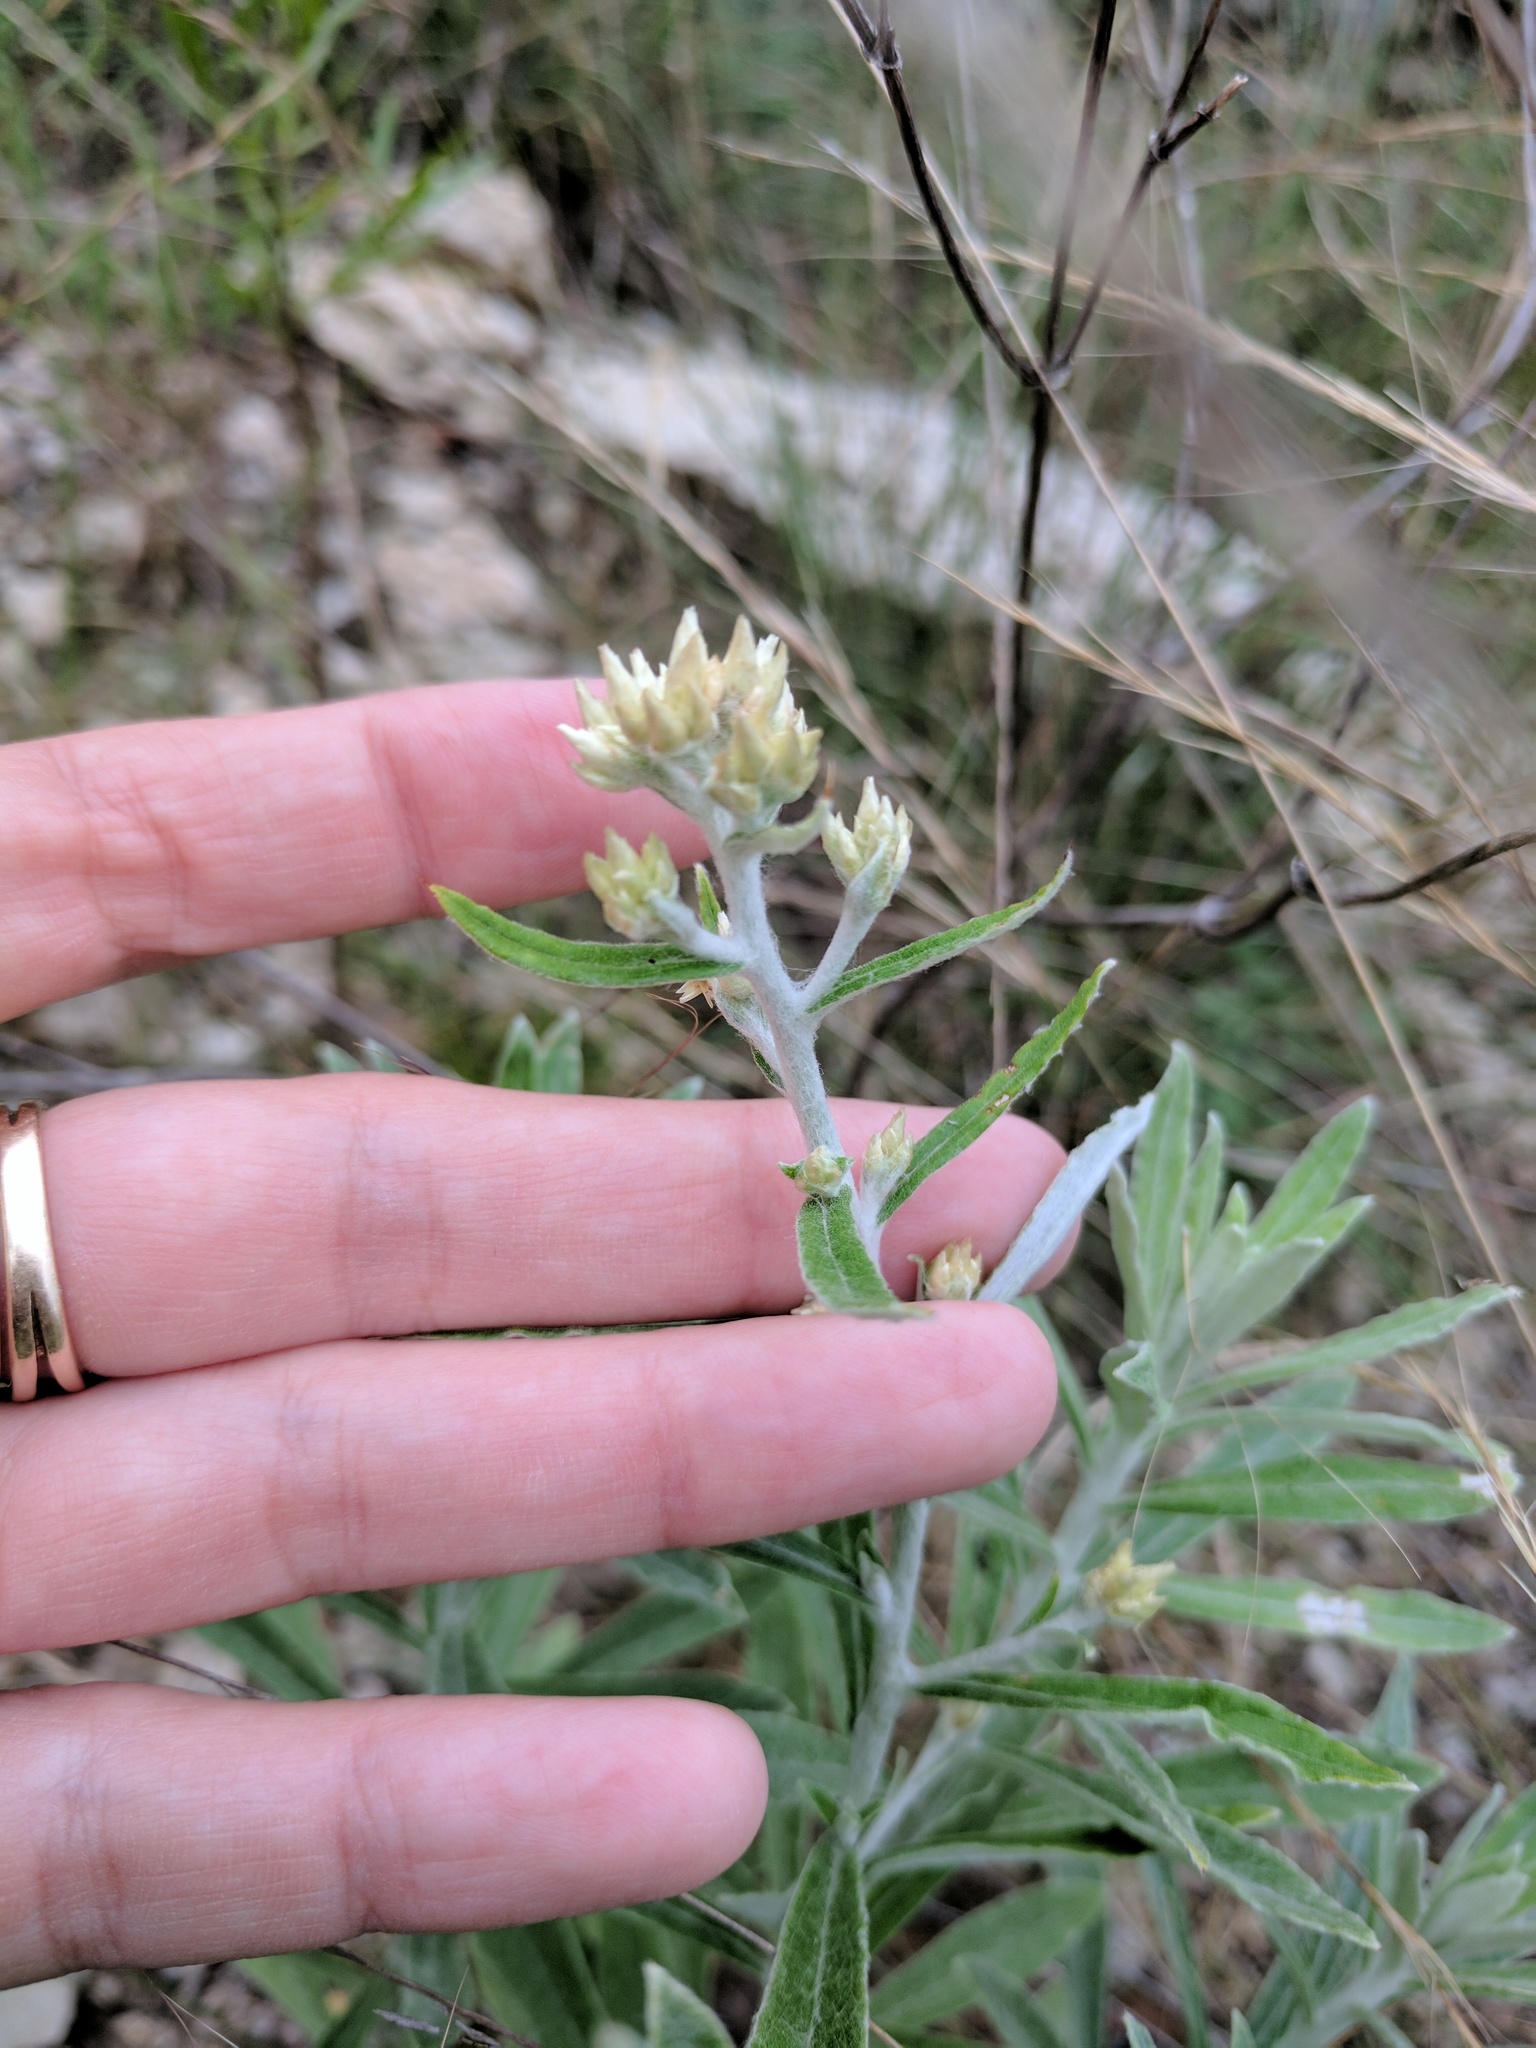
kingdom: Plantae
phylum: Tracheophyta
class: Magnoliopsida
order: Asterales
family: Asteraceae
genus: Pseudognaphalium
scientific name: Pseudognaphalium obtusifolium
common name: Eastern rabbit-tobacco
